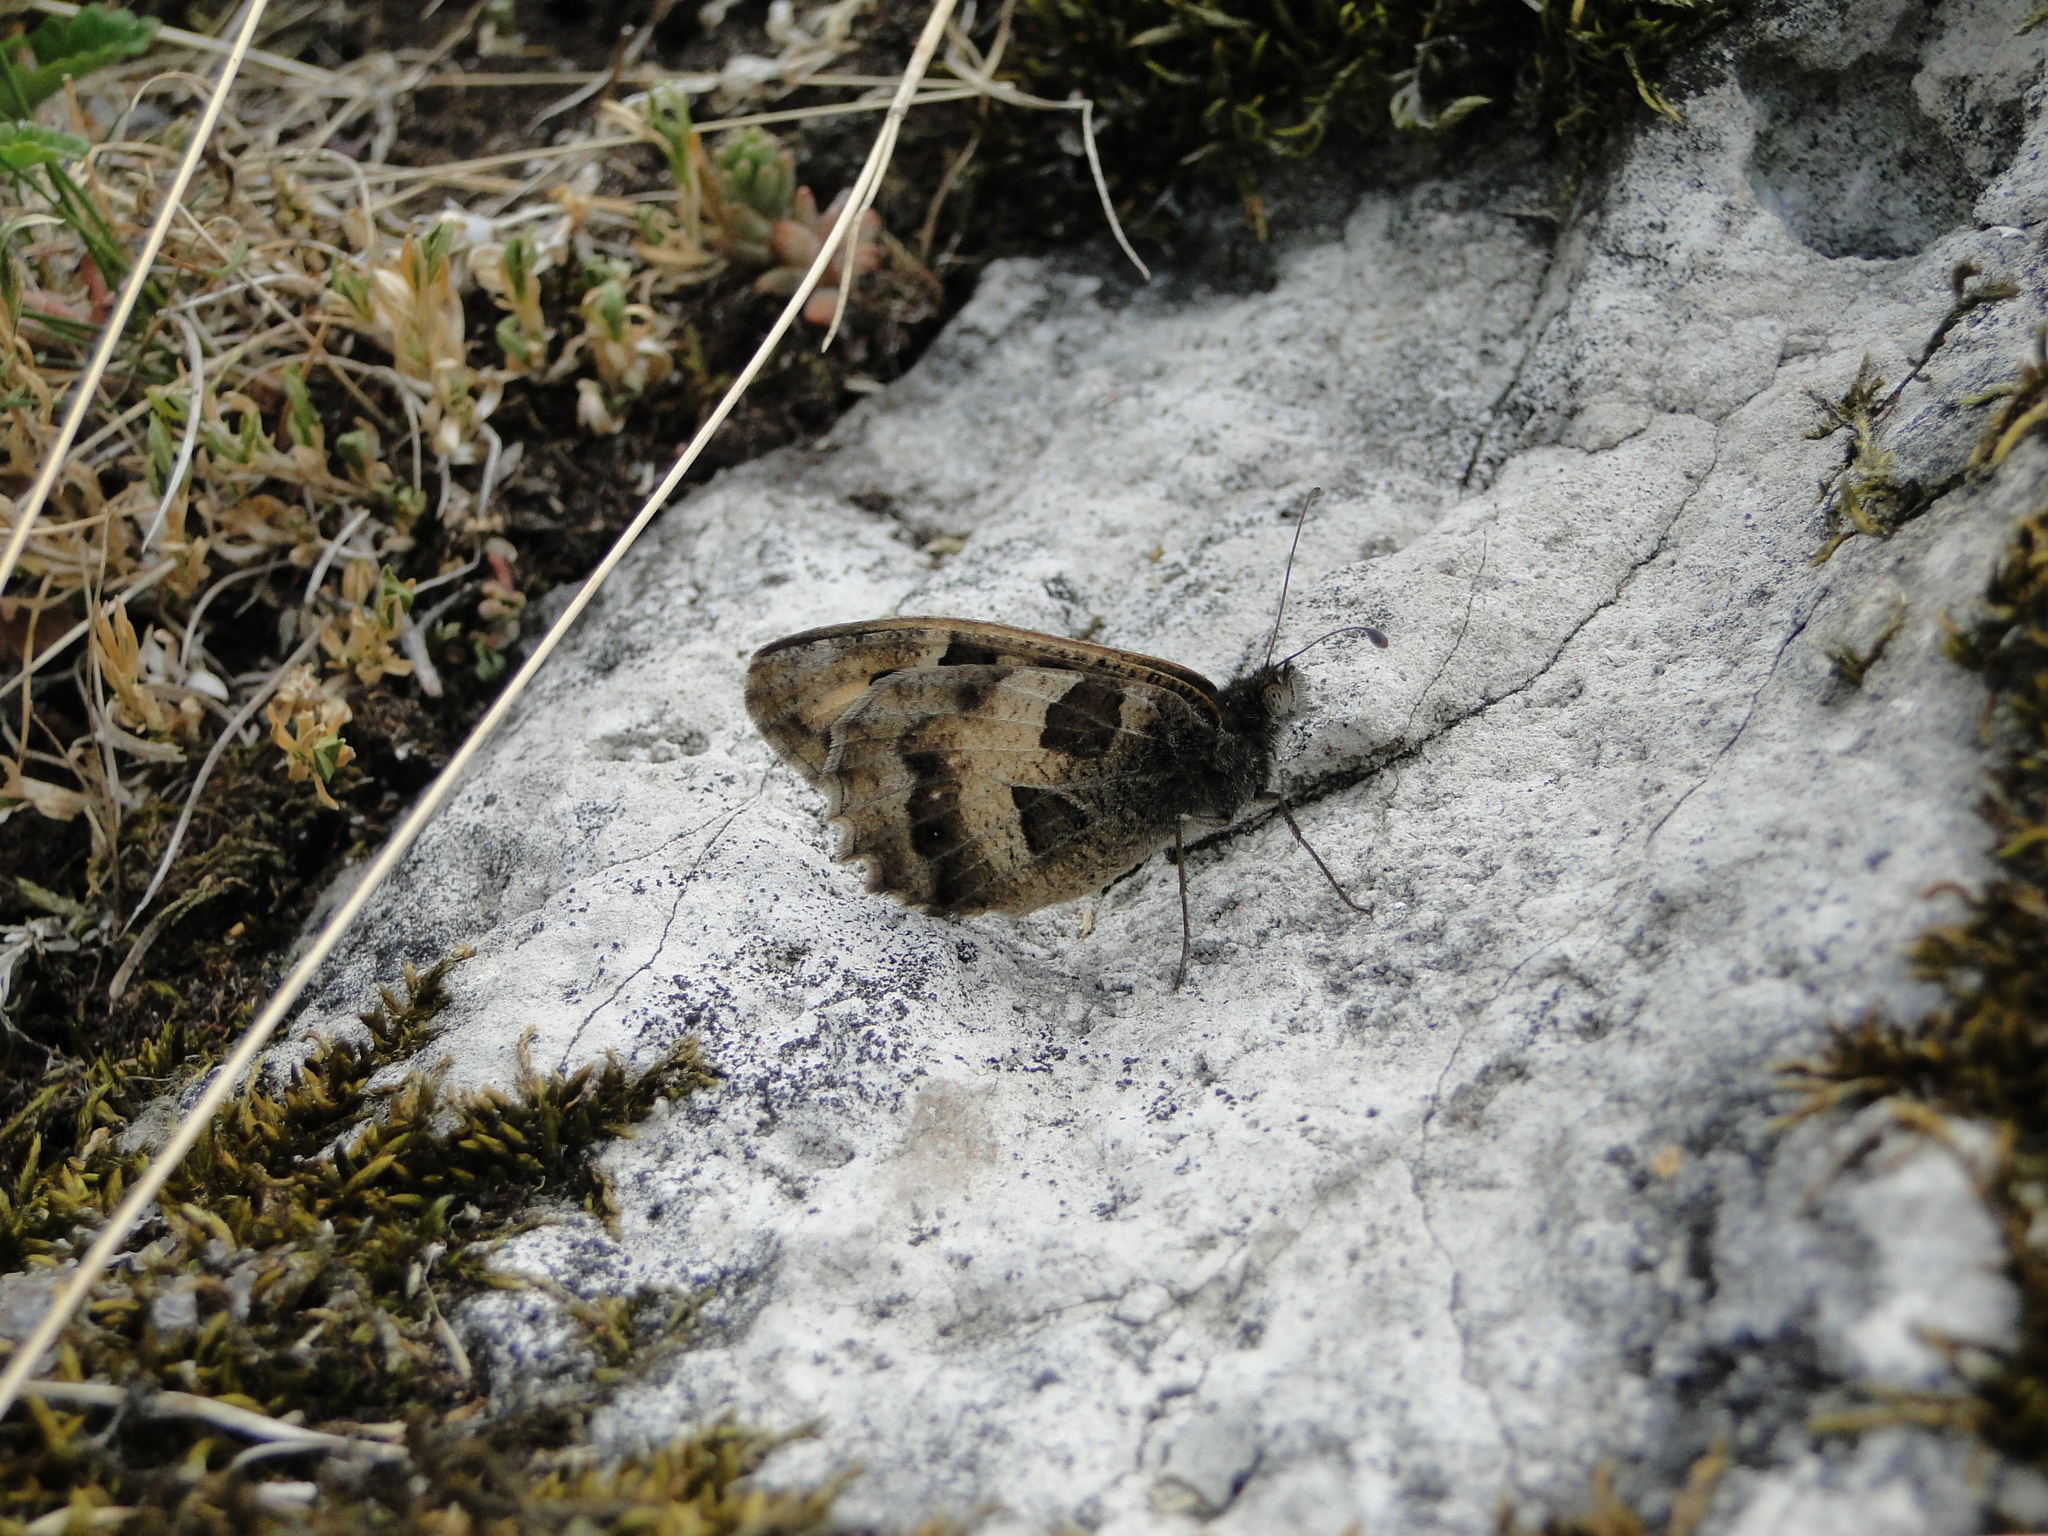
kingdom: Animalia
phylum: Arthropoda
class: Insecta
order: Lepidoptera
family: Nymphalidae
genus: Satyrus
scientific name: Satyrus briseis
